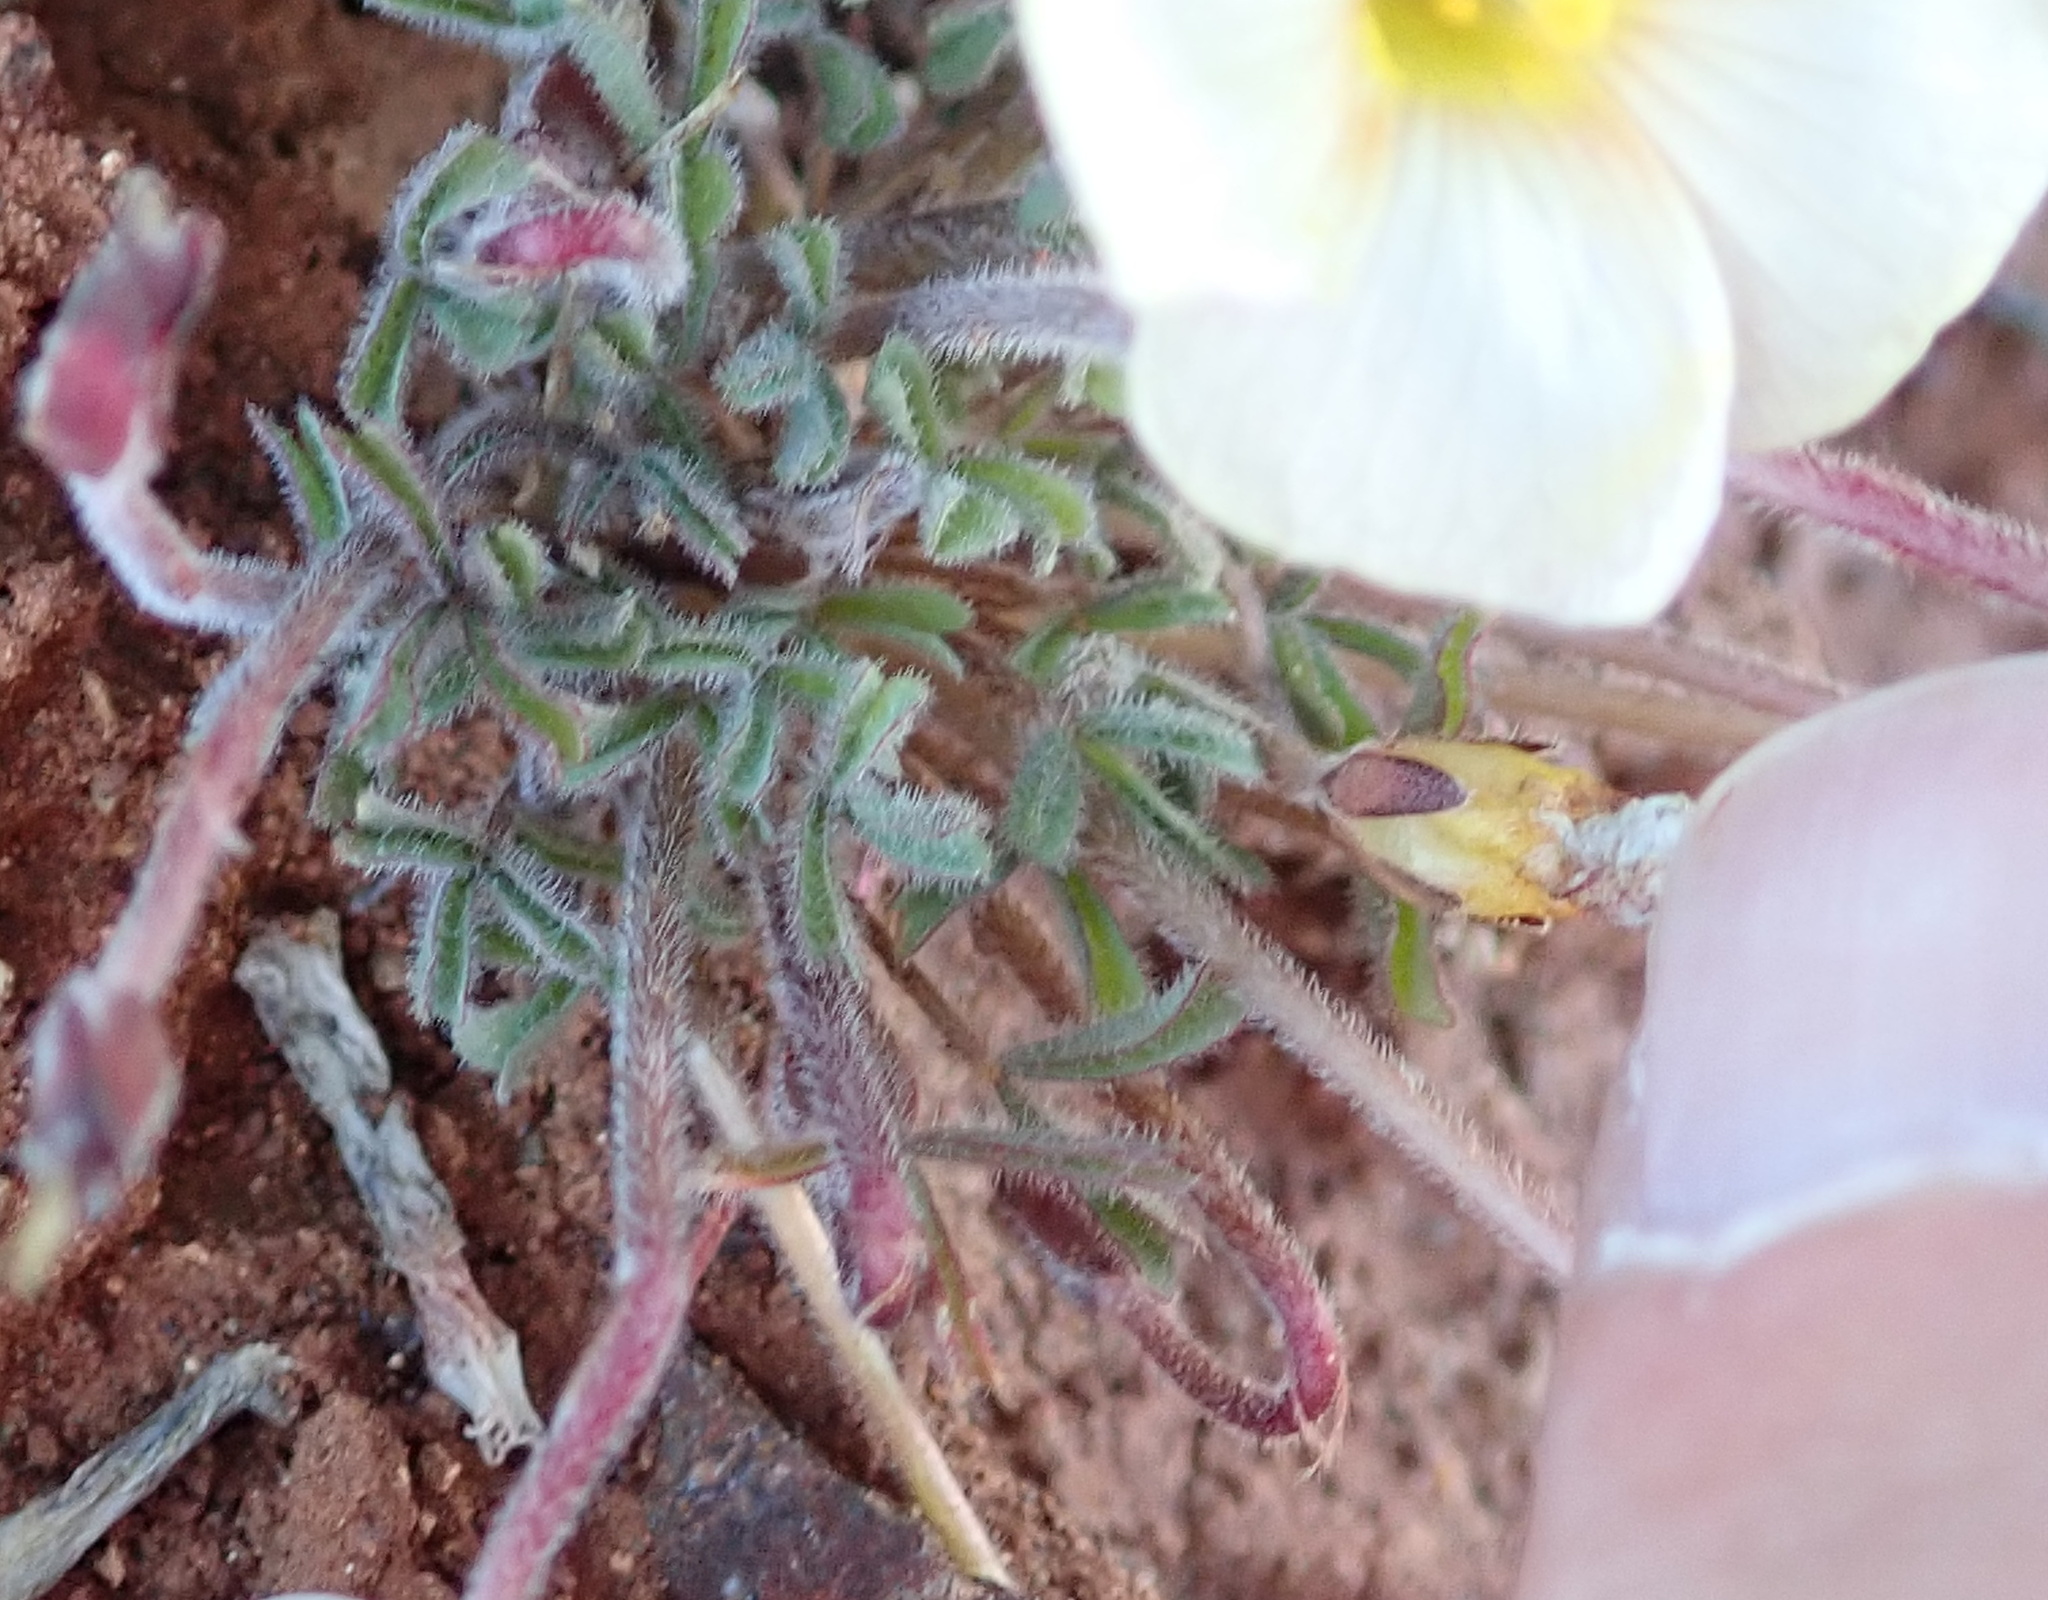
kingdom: Plantae
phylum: Tracheophyta
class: Magnoliopsida
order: Oxalidales
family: Oxalidaceae
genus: Oxalis
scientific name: Oxalis obtusa
